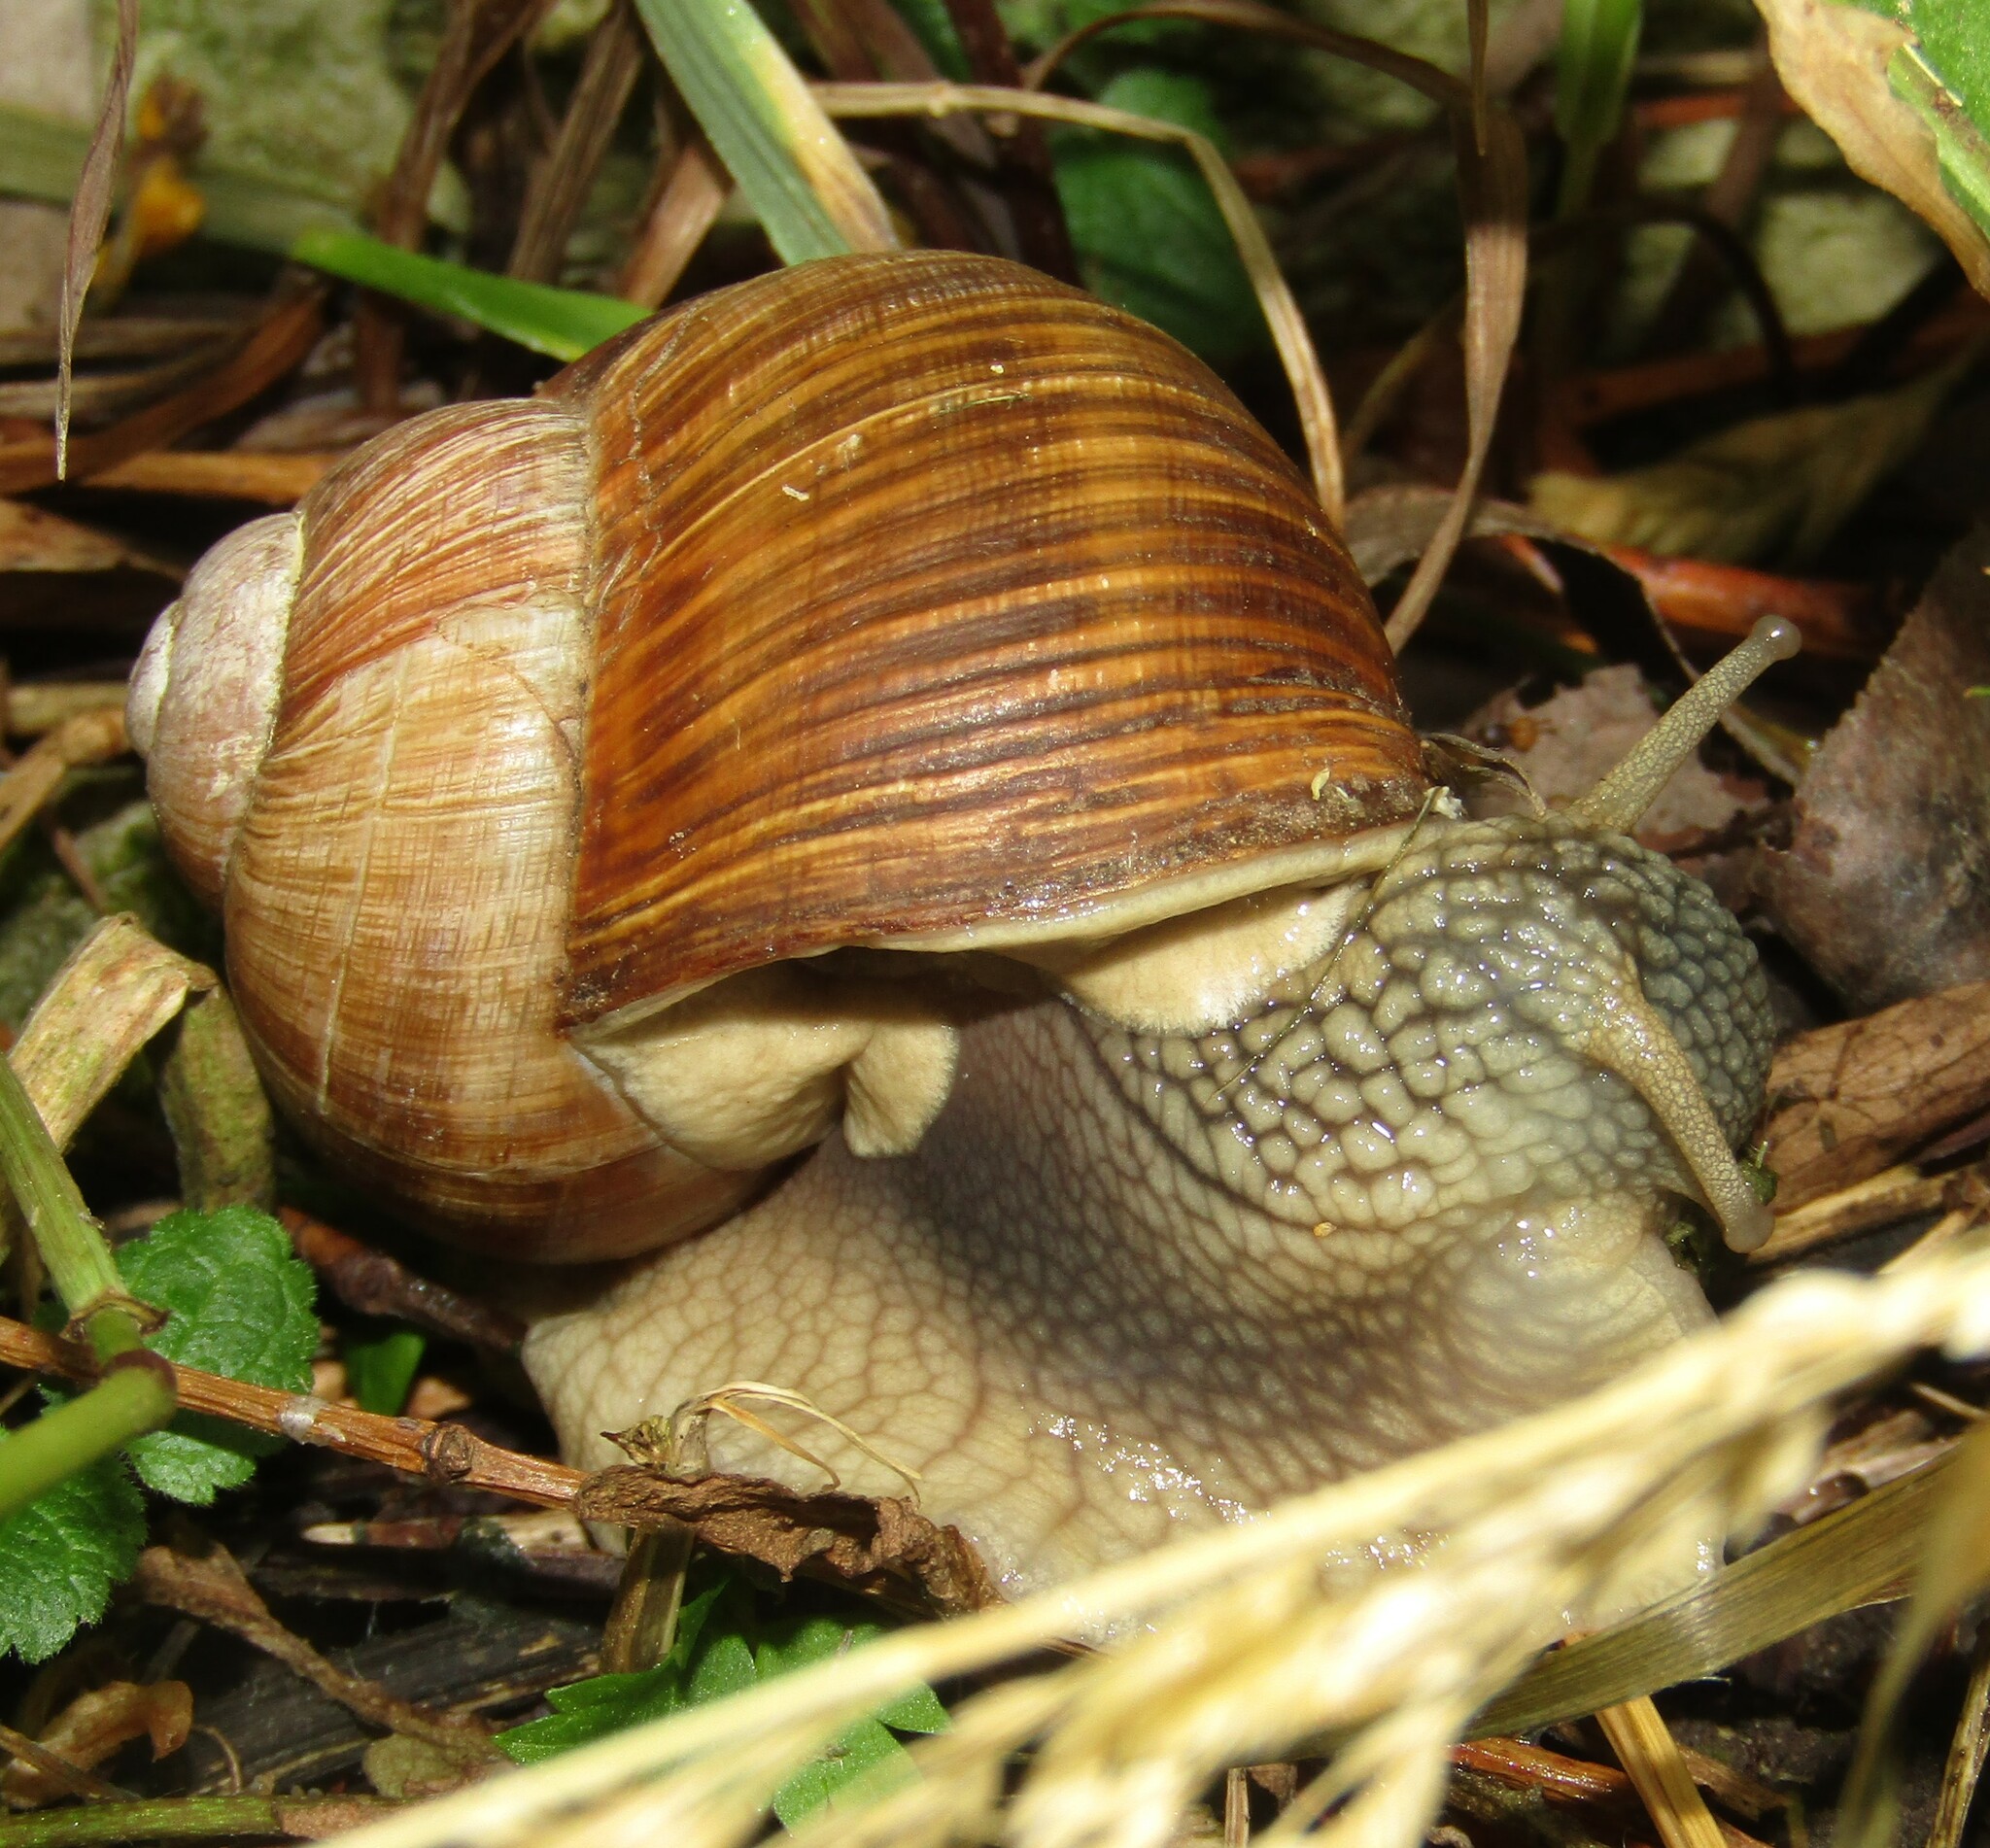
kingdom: Animalia
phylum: Mollusca
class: Gastropoda
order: Stylommatophora
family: Helicidae
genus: Helix
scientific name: Helix pomatia
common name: Roman snail
